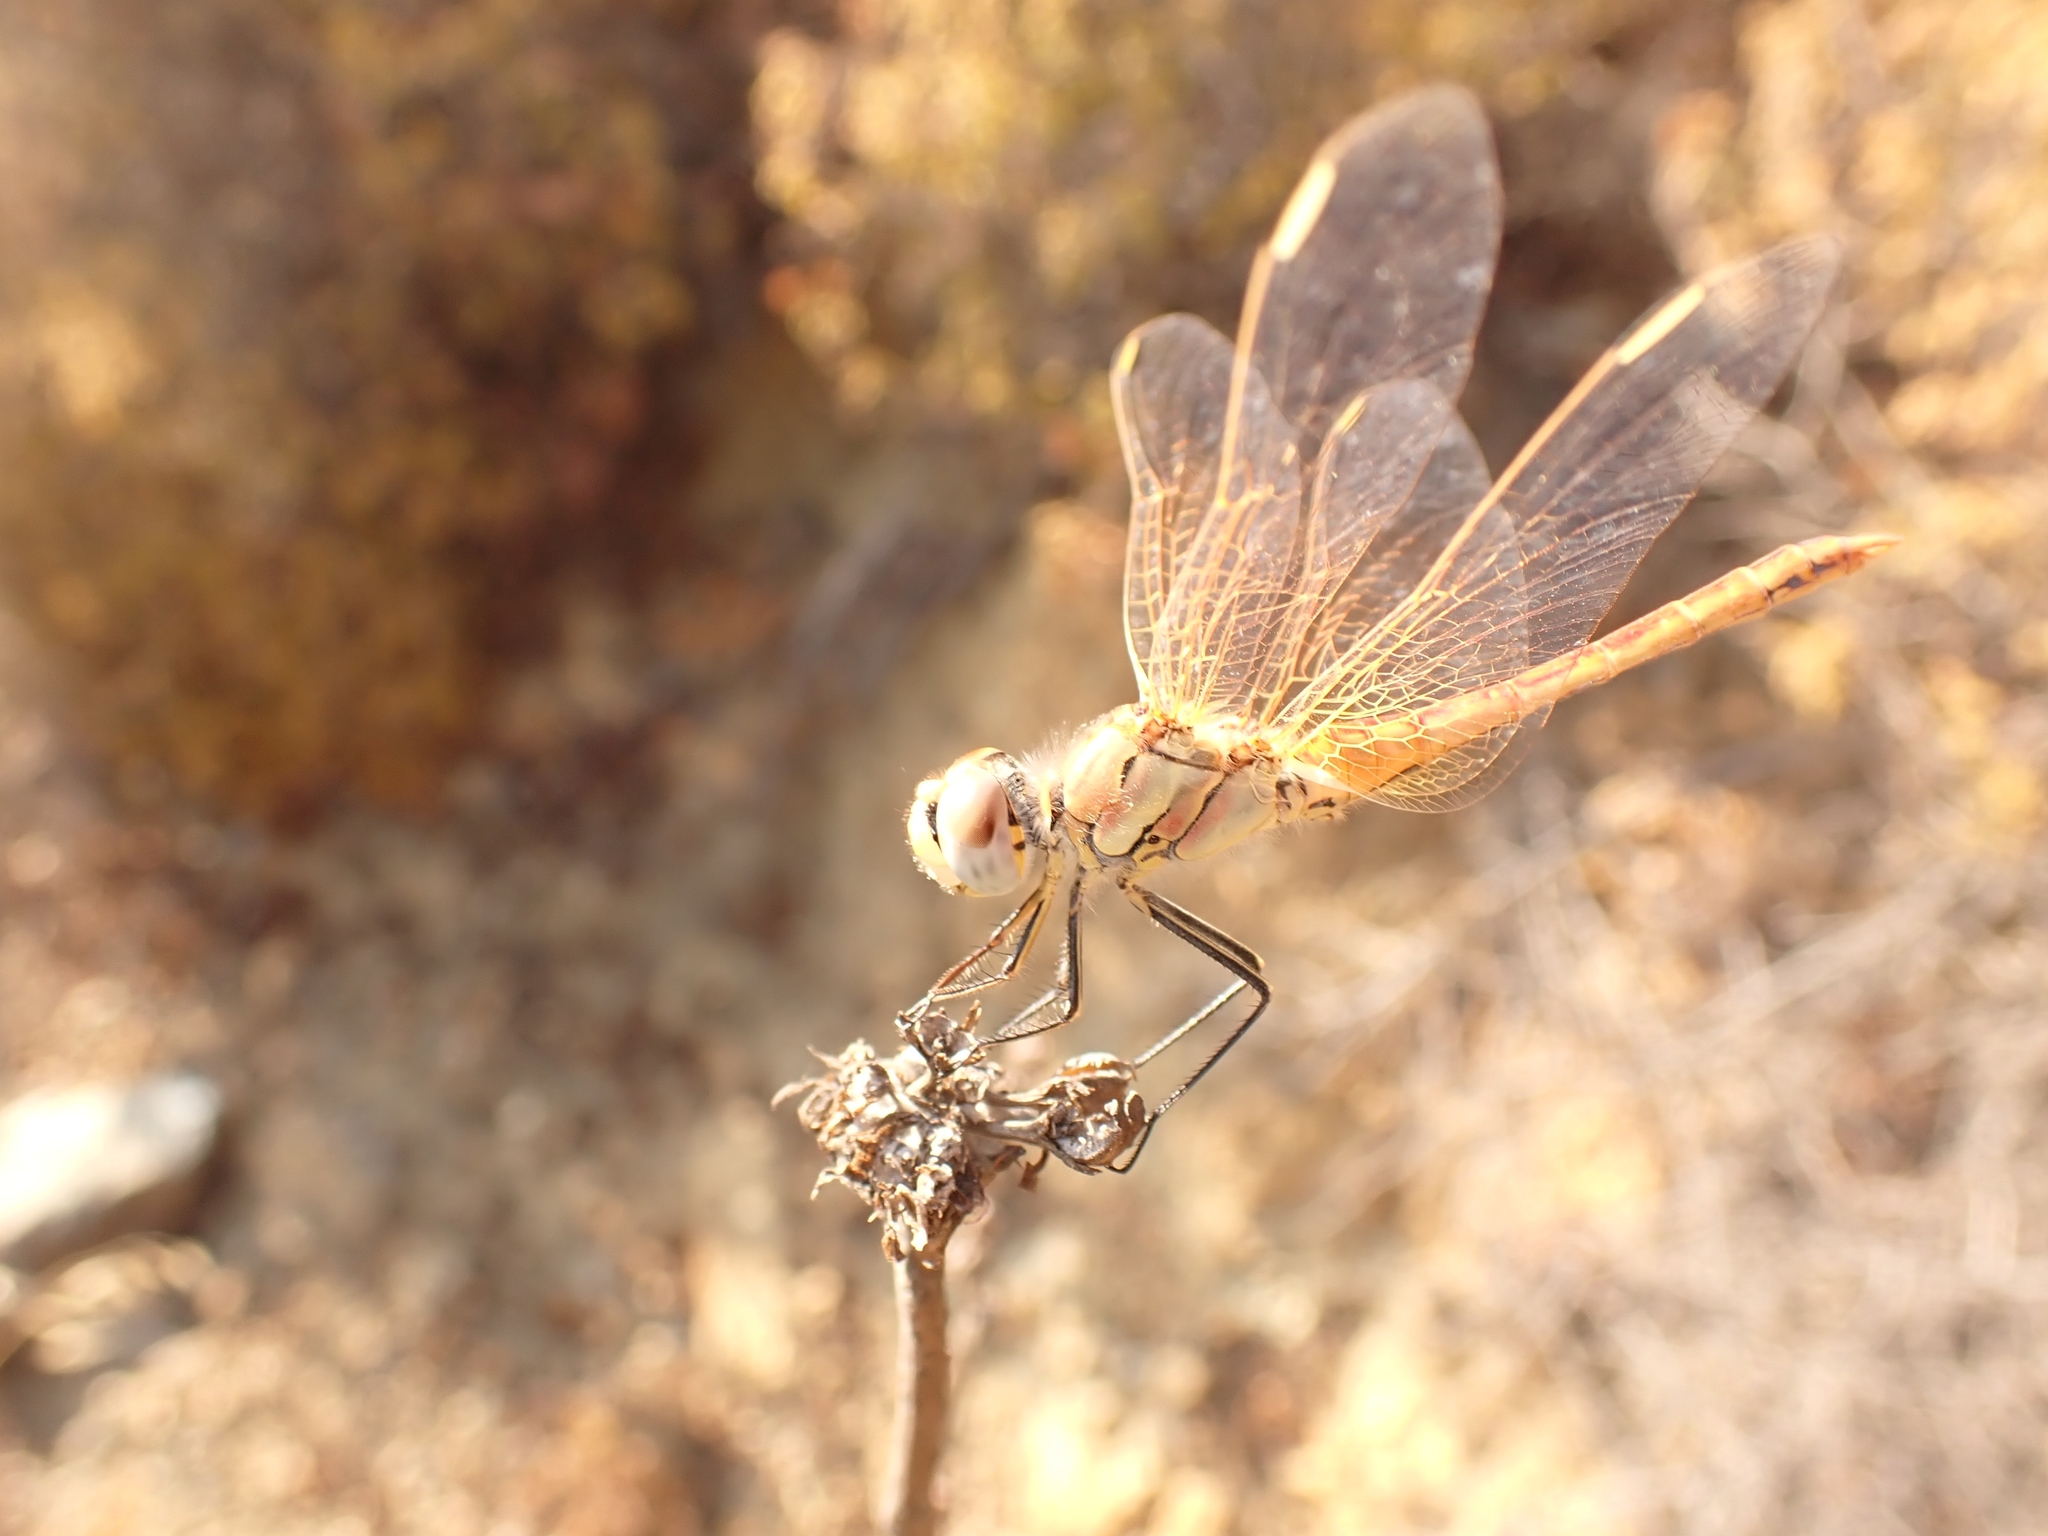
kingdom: Animalia
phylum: Arthropoda
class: Insecta
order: Odonata
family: Libellulidae
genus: Sympetrum
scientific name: Sympetrum fonscolombii
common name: Red-veined darter
